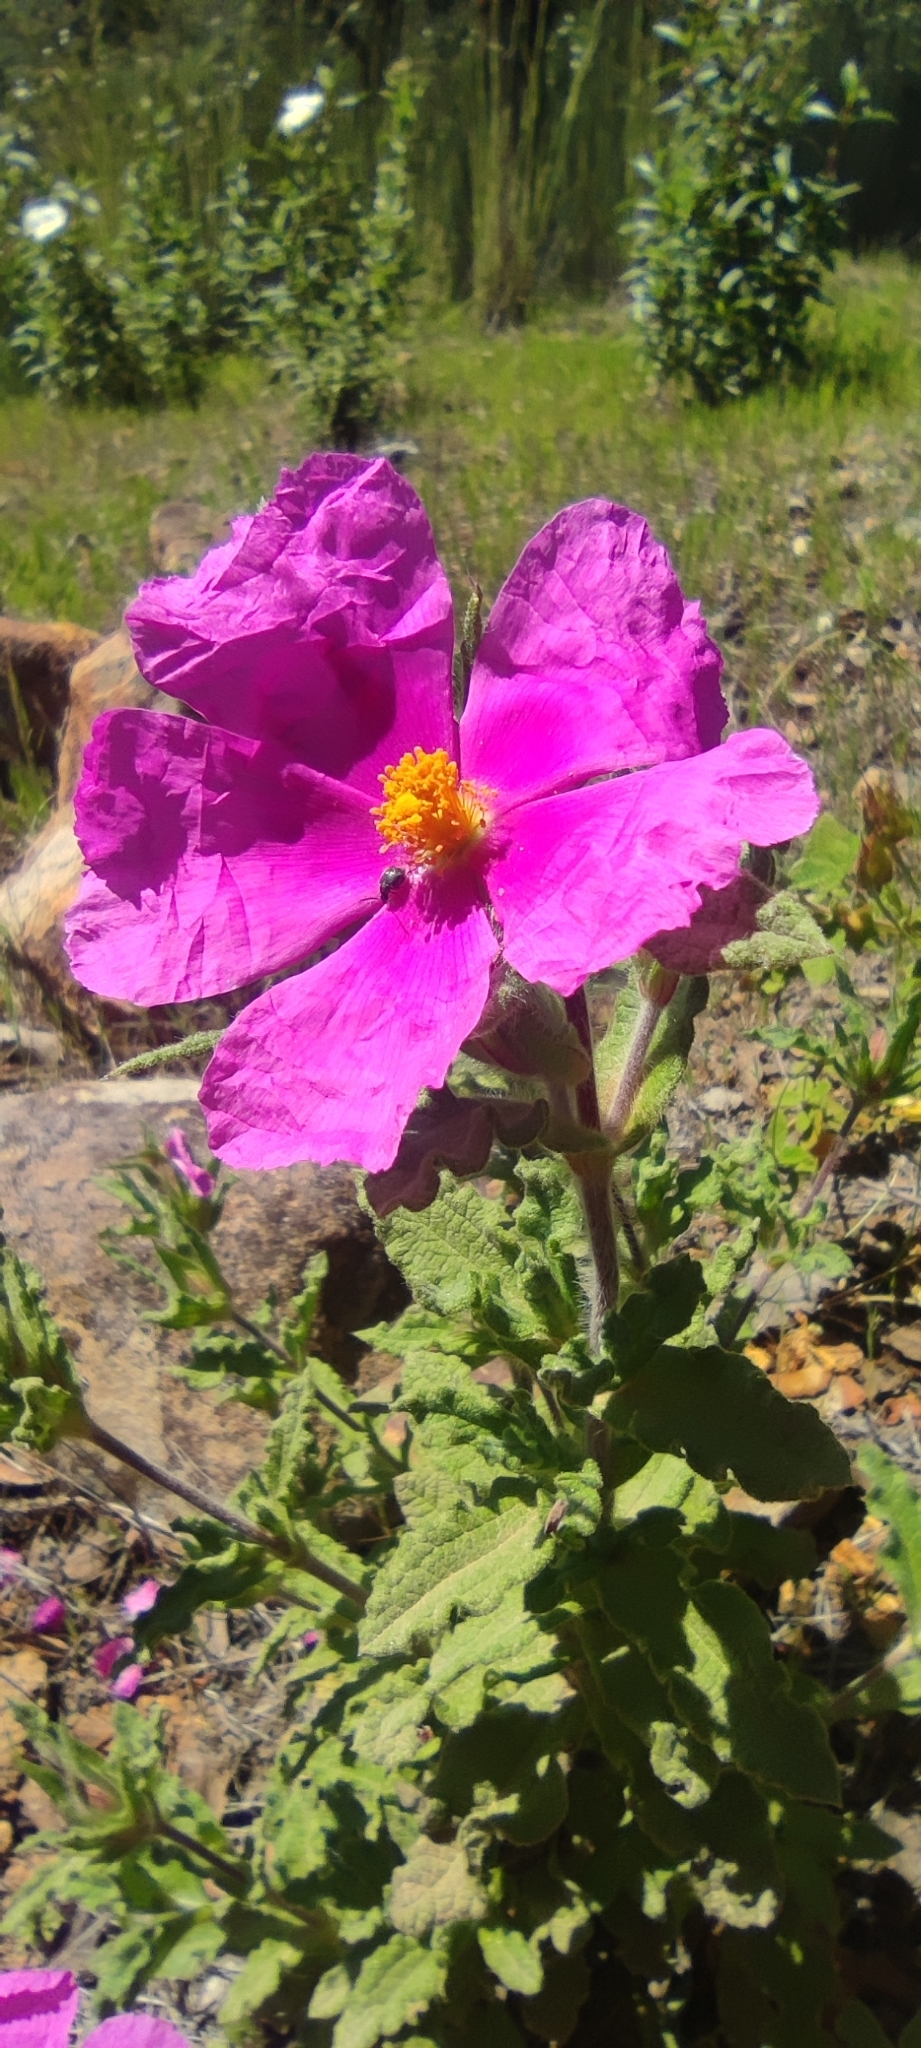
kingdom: Plantae
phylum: Tracheophyta
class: Magnoliopsida
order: Malvales
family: Cistaceae
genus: Cistus
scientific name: Cistus crispus
